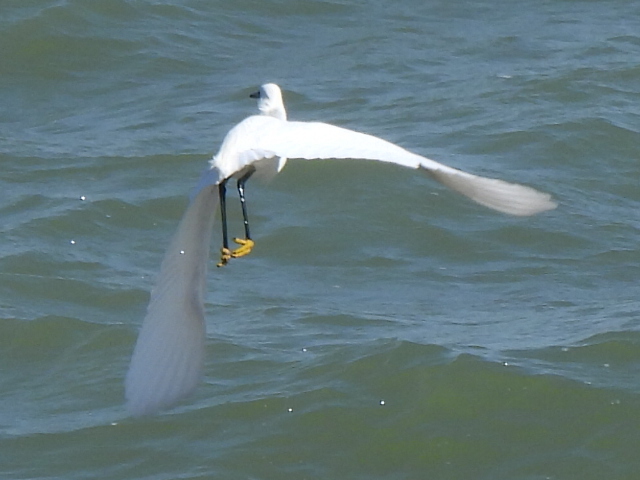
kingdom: Animalia
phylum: Chordata
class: Aves
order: Pelecaniformes
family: Ardeidae
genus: Egretta
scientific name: Egretta thula
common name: Snowy egret
